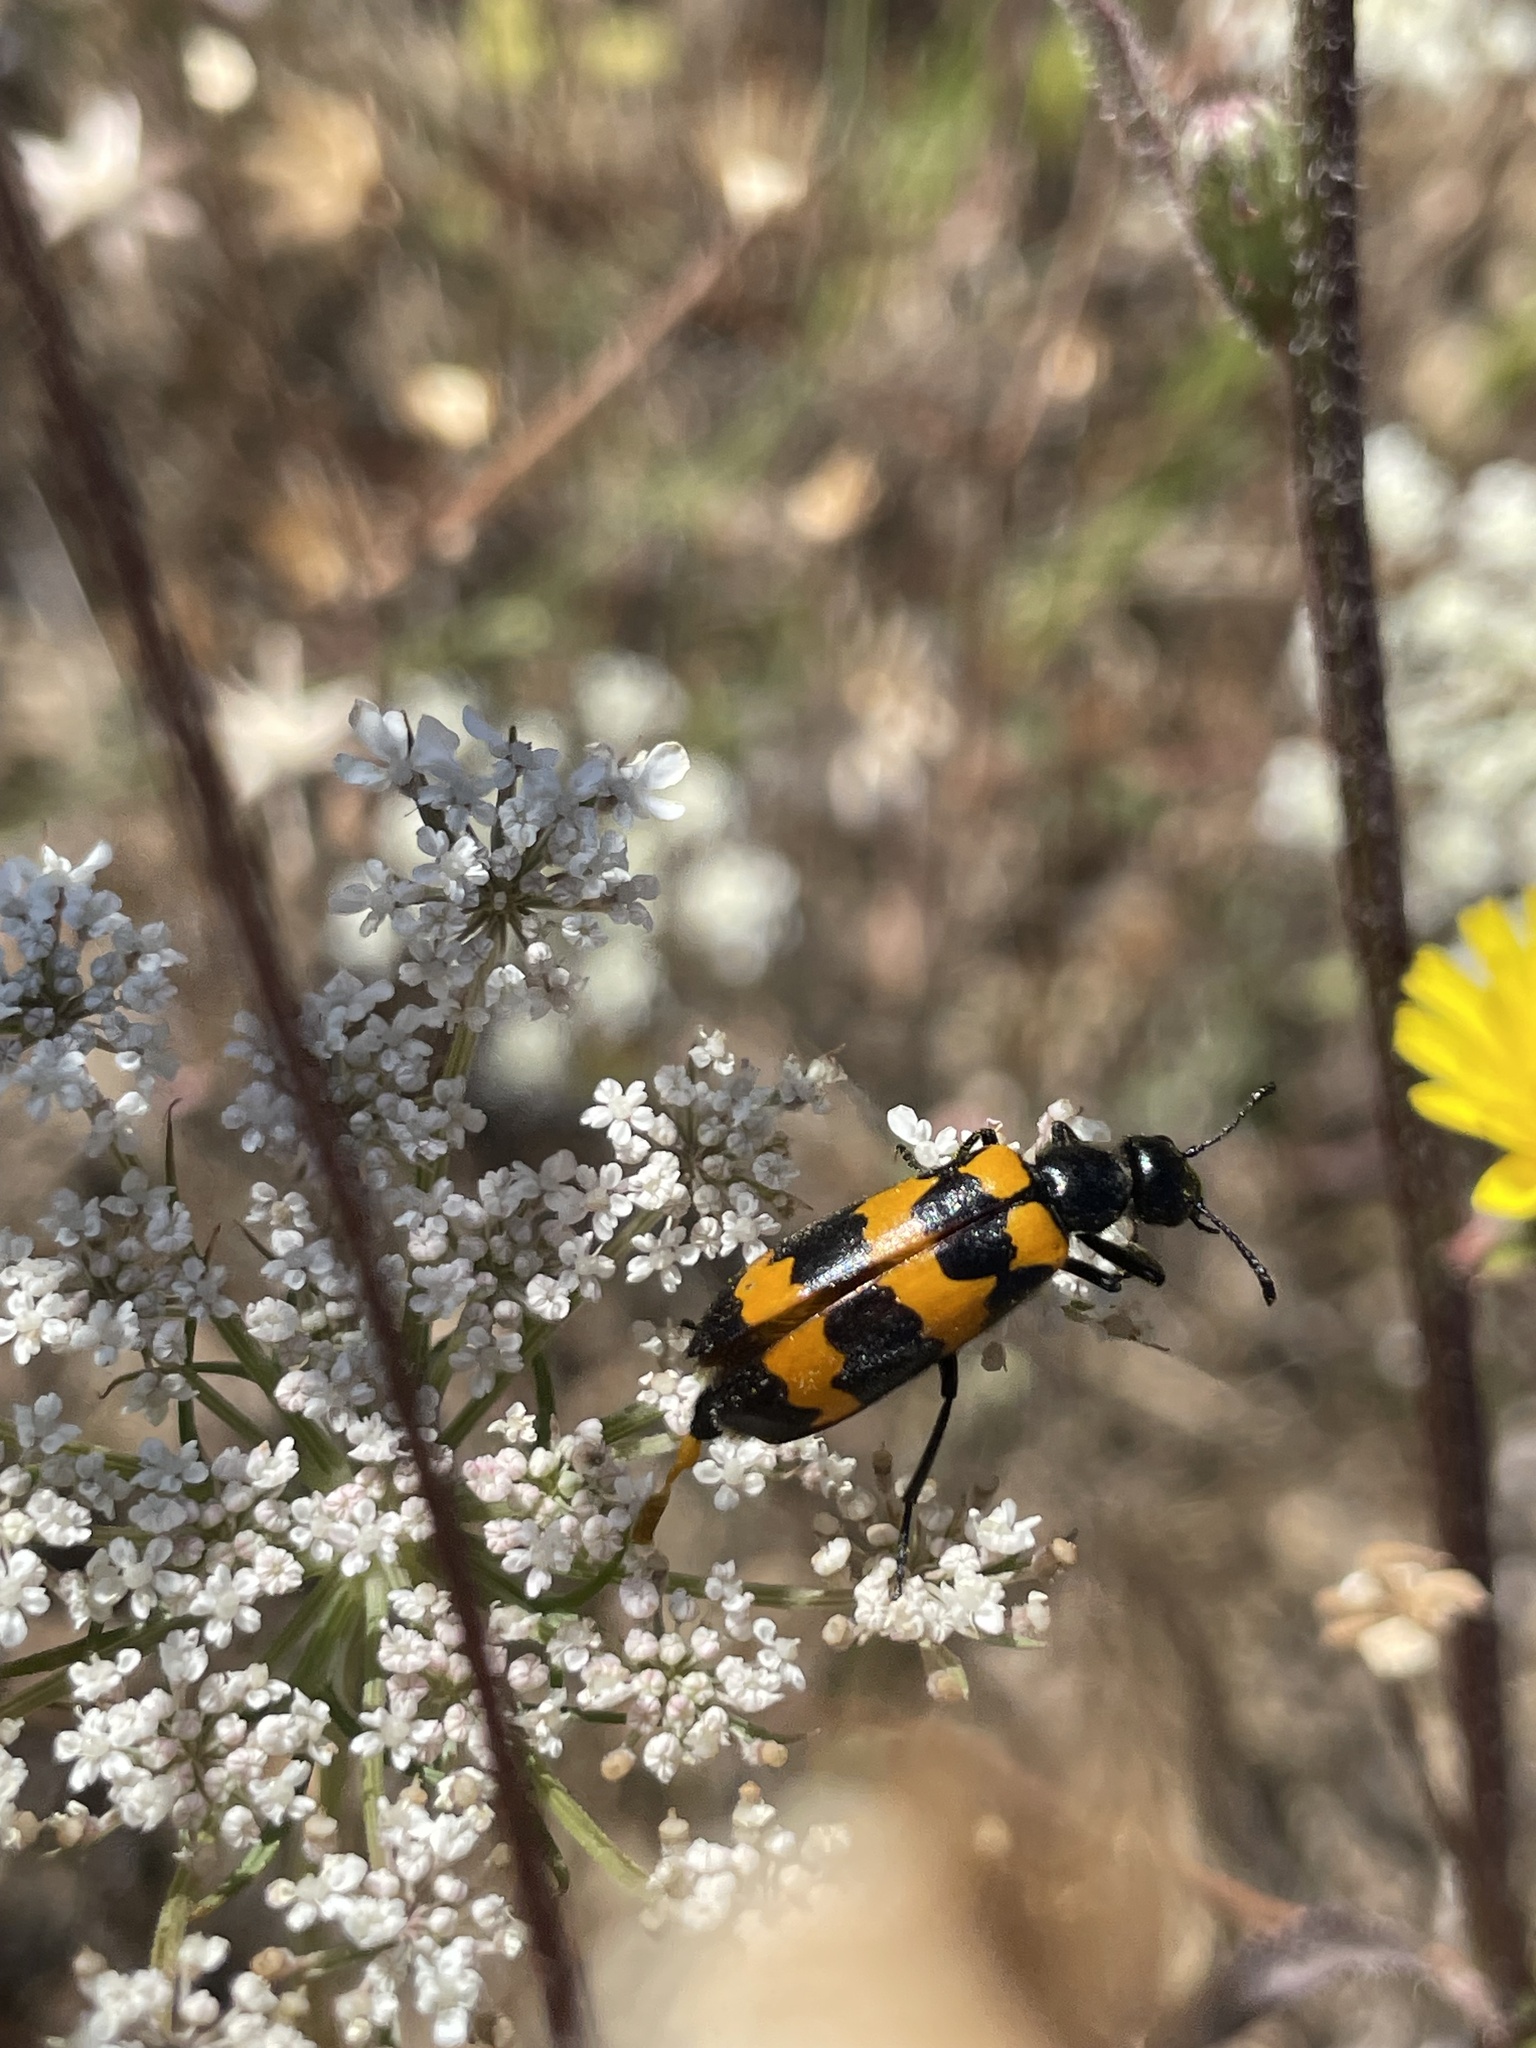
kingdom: Animalia
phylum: Arthropoda
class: Insecta
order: Coleoptera
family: Meloidae
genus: Mylabris
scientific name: Mylabris variabilis
